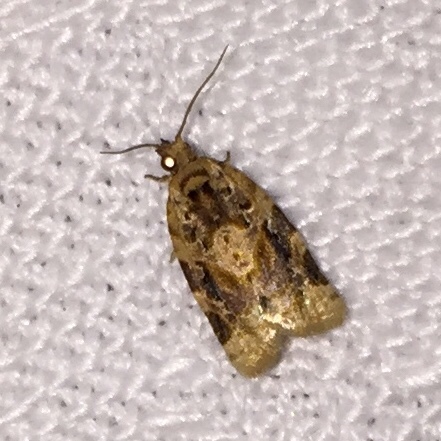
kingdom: Animalia
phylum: Arthropoda
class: Insecta
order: Lepidoptera
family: Tortricidae
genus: Argyrotaenia
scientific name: Argyrotaenia velutinana
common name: Red-banded leafroller moth
